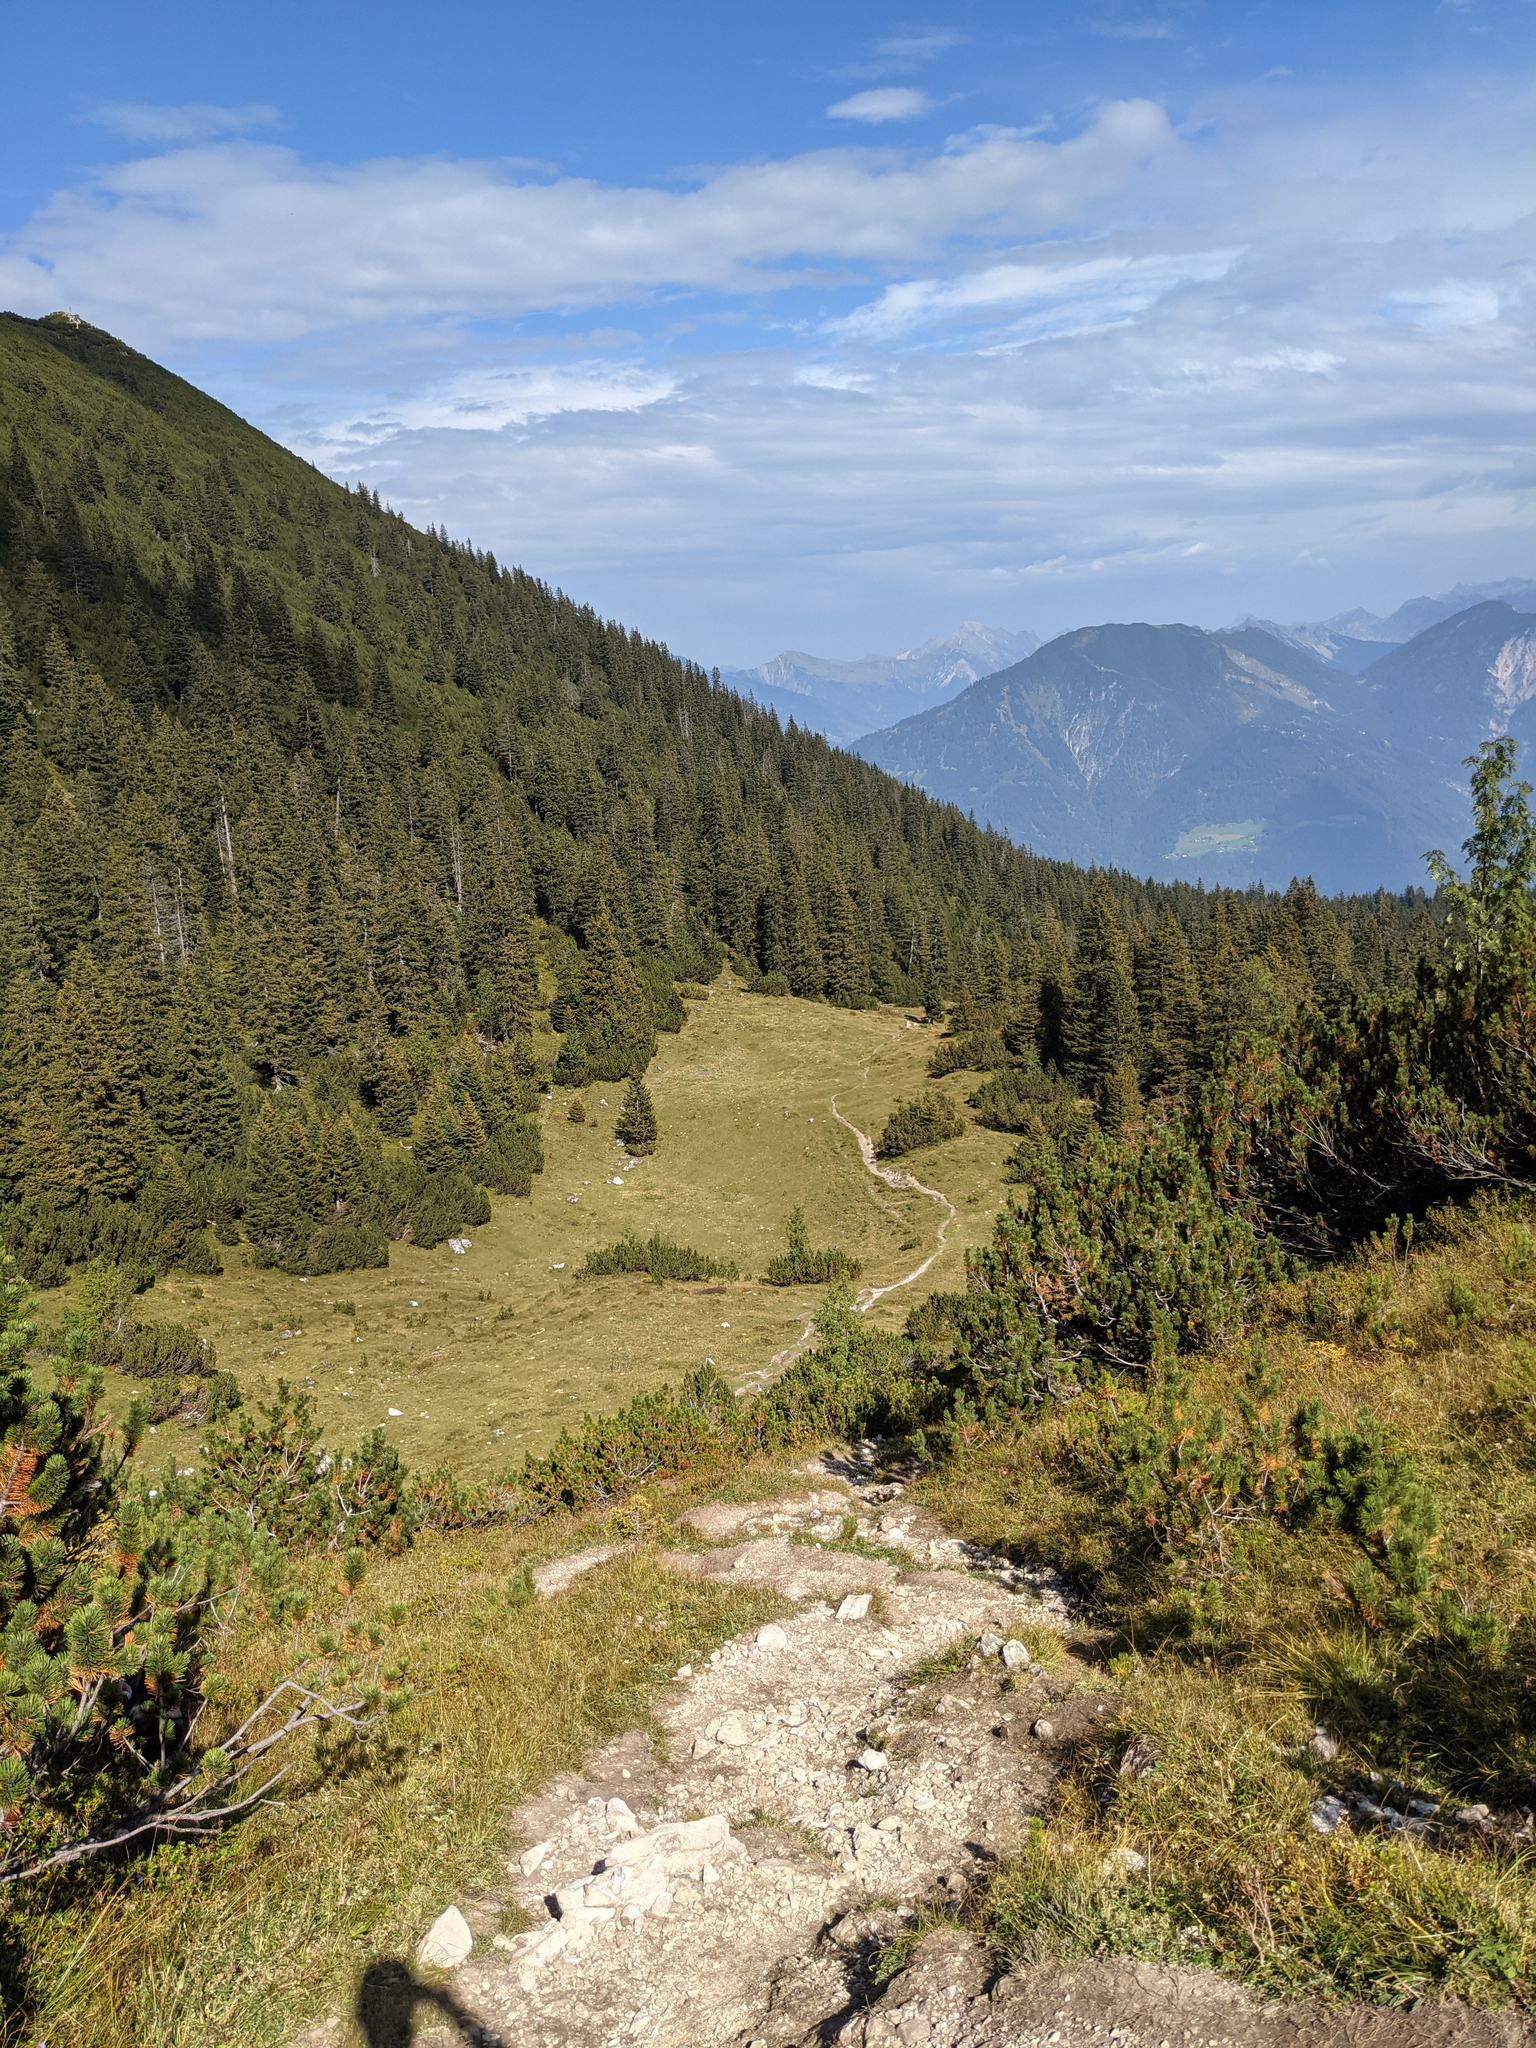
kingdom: Plantae
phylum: Tracheophyta
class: Pinopsida
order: Pinales
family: Pinaceae
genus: Picea
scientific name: Picea abies
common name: Norway spruce
